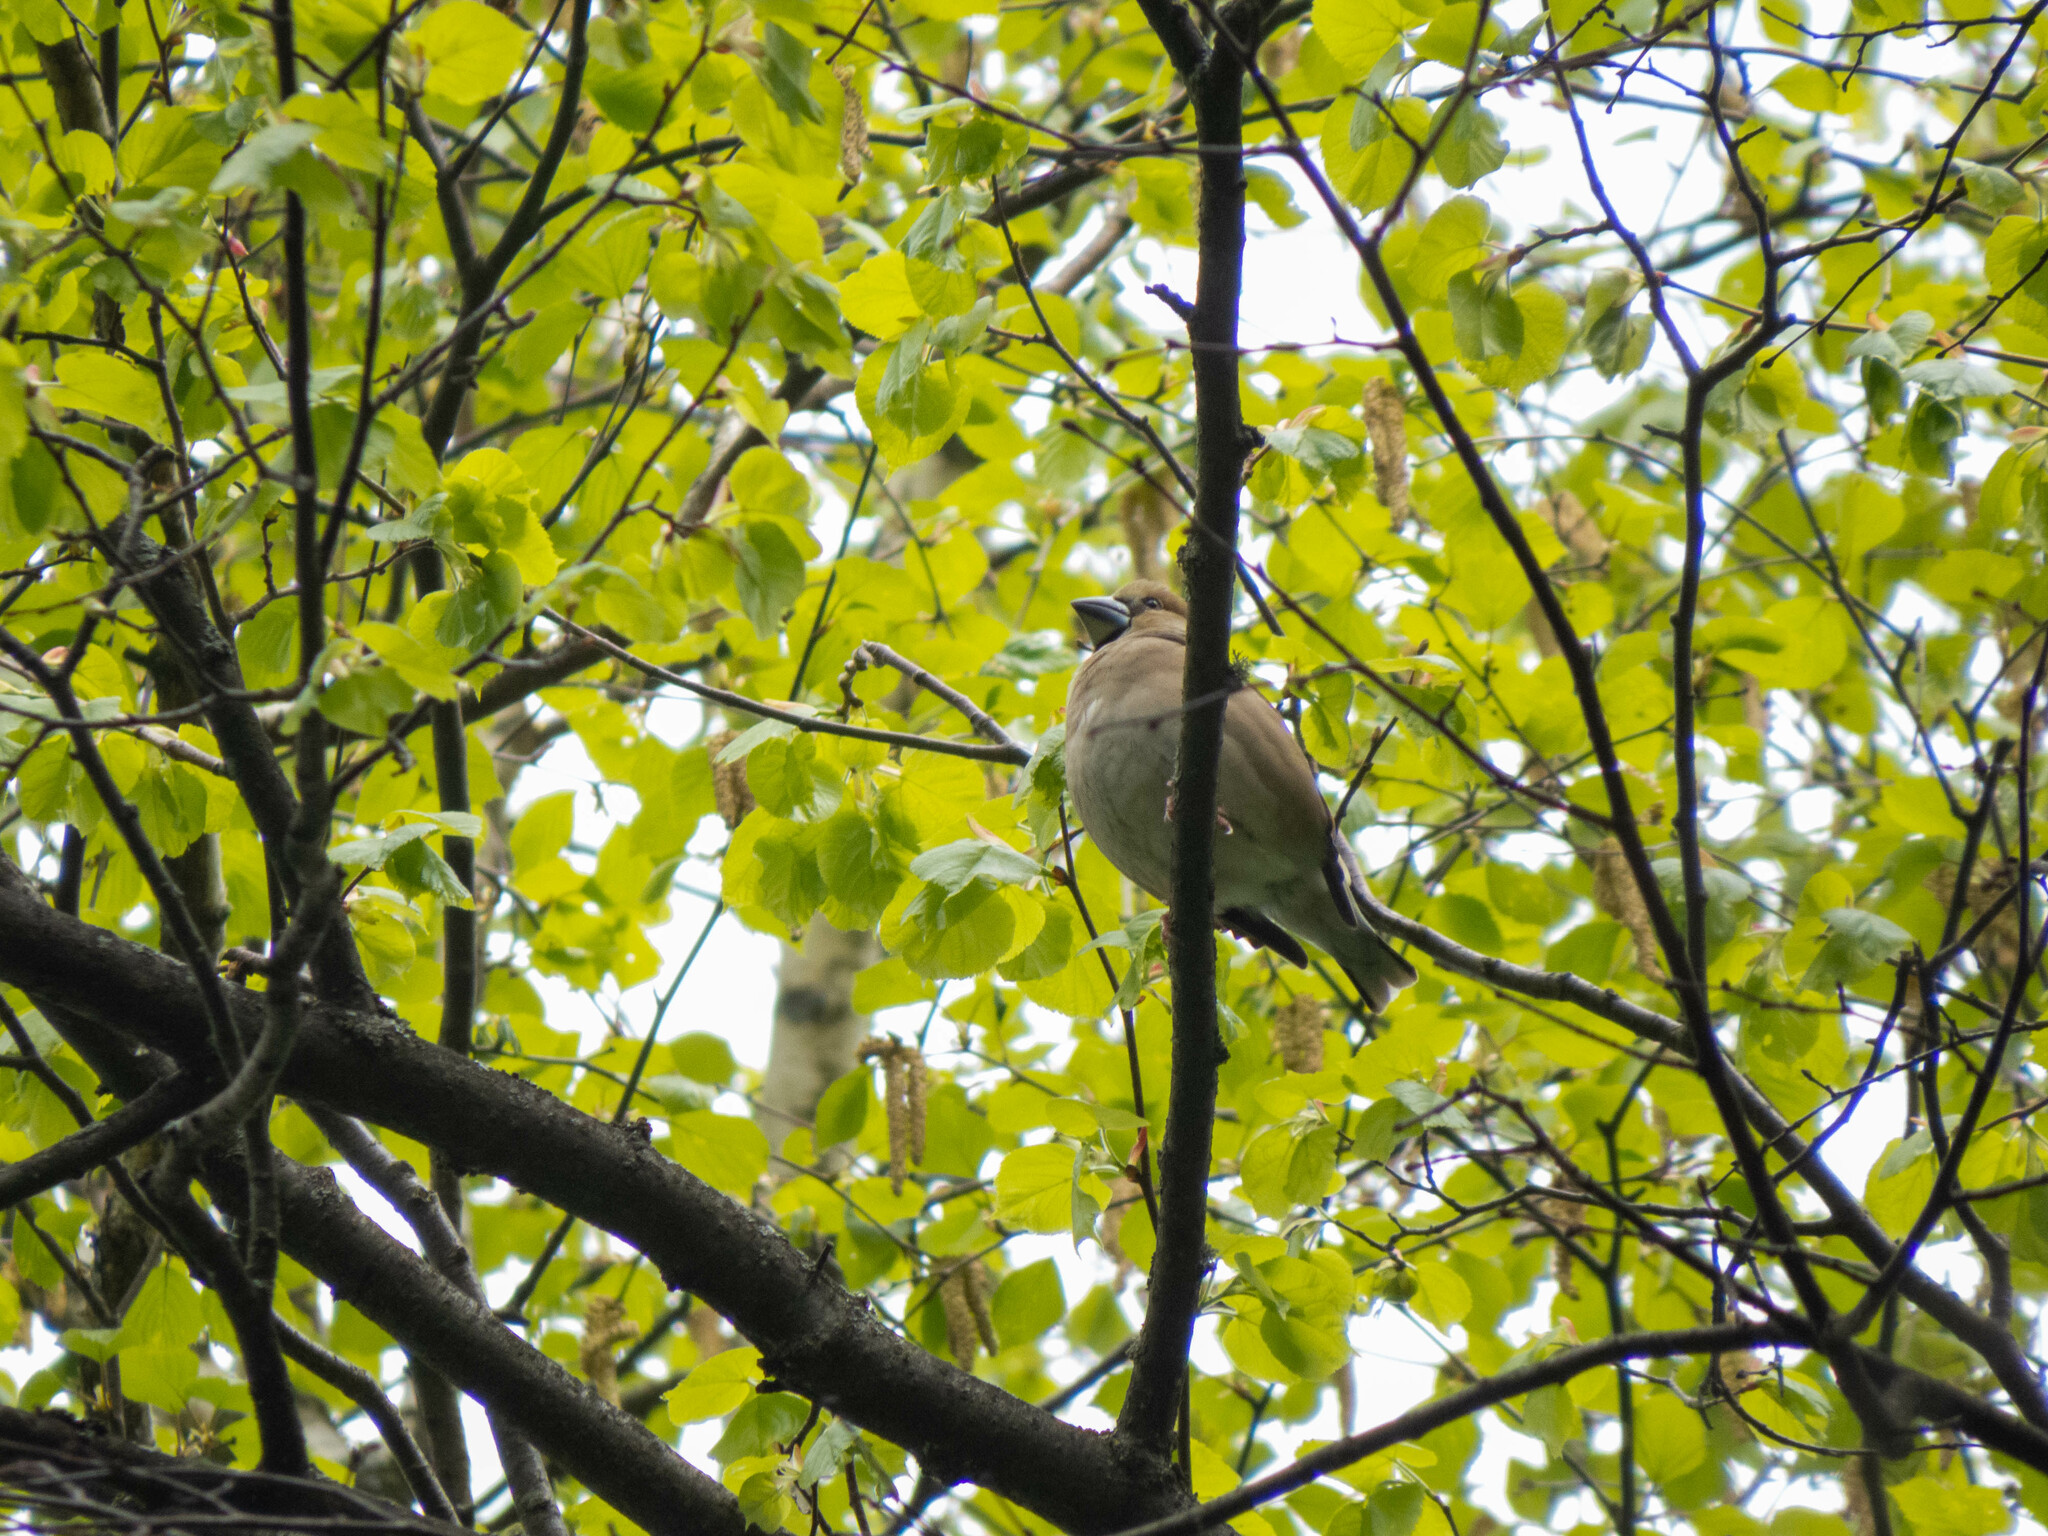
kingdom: Animalia
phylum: Chordata
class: Aves
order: Passeriformes
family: Fringillidae
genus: Coccothraustes
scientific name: Coccothraustes coccothraustes
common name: Hawfinch
